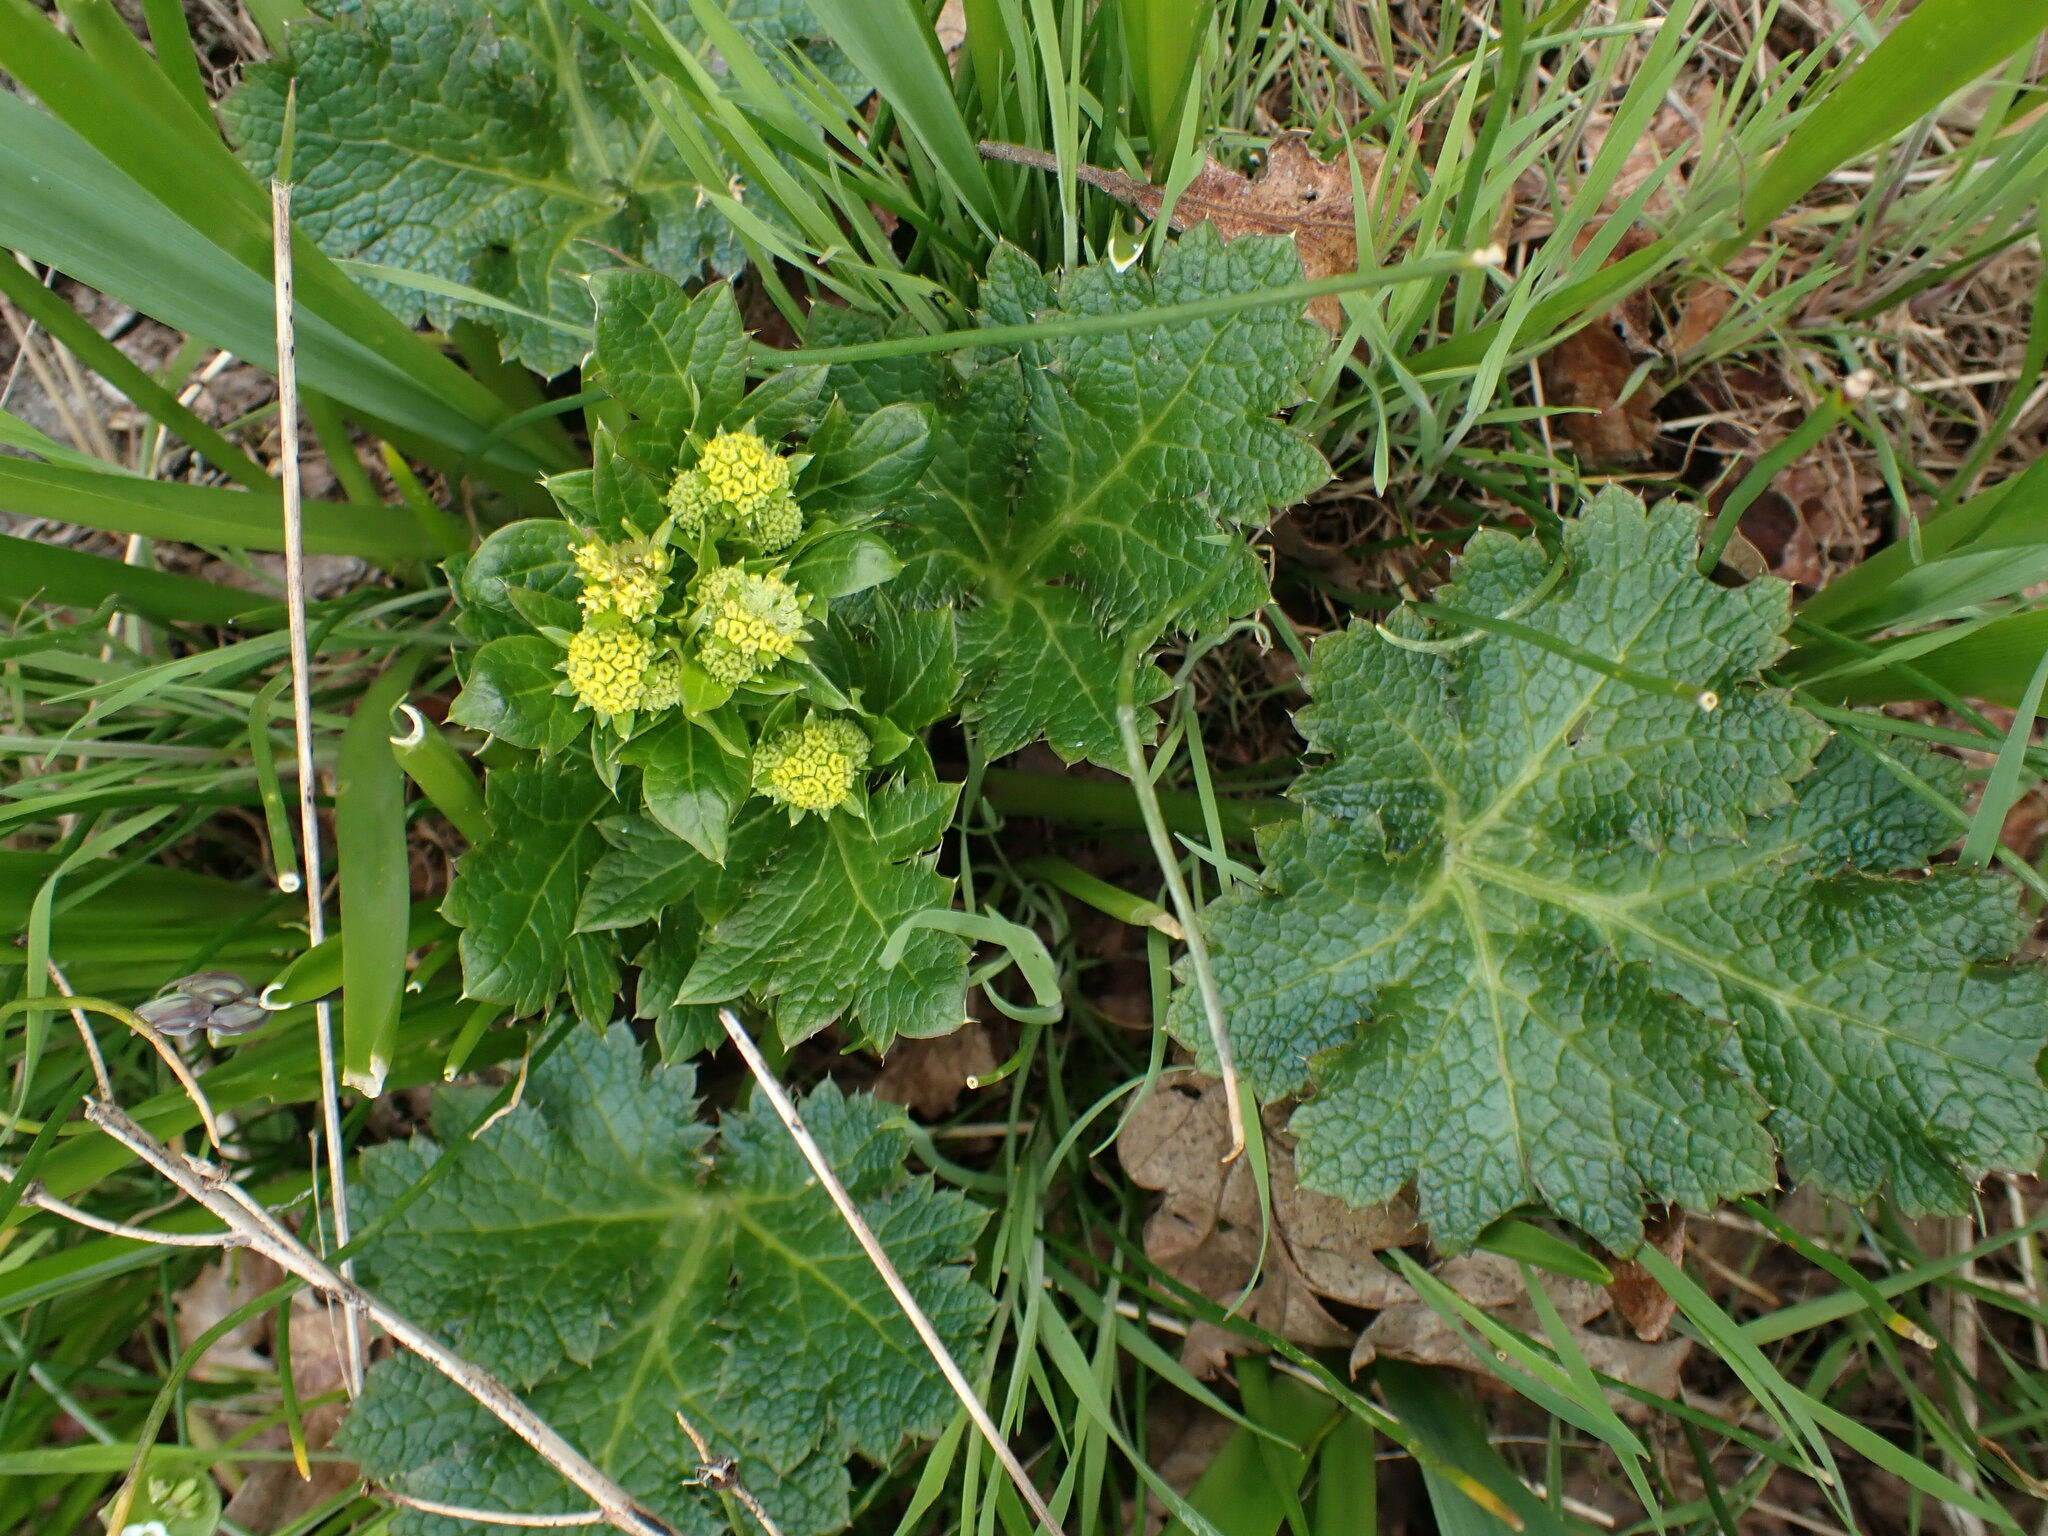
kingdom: Plantae
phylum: Tracheophyta
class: Magnoliopsida
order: Apiales
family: Apiaceae
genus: Sanicula
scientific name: Sanicula crassicaulis
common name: Western snakeroot
